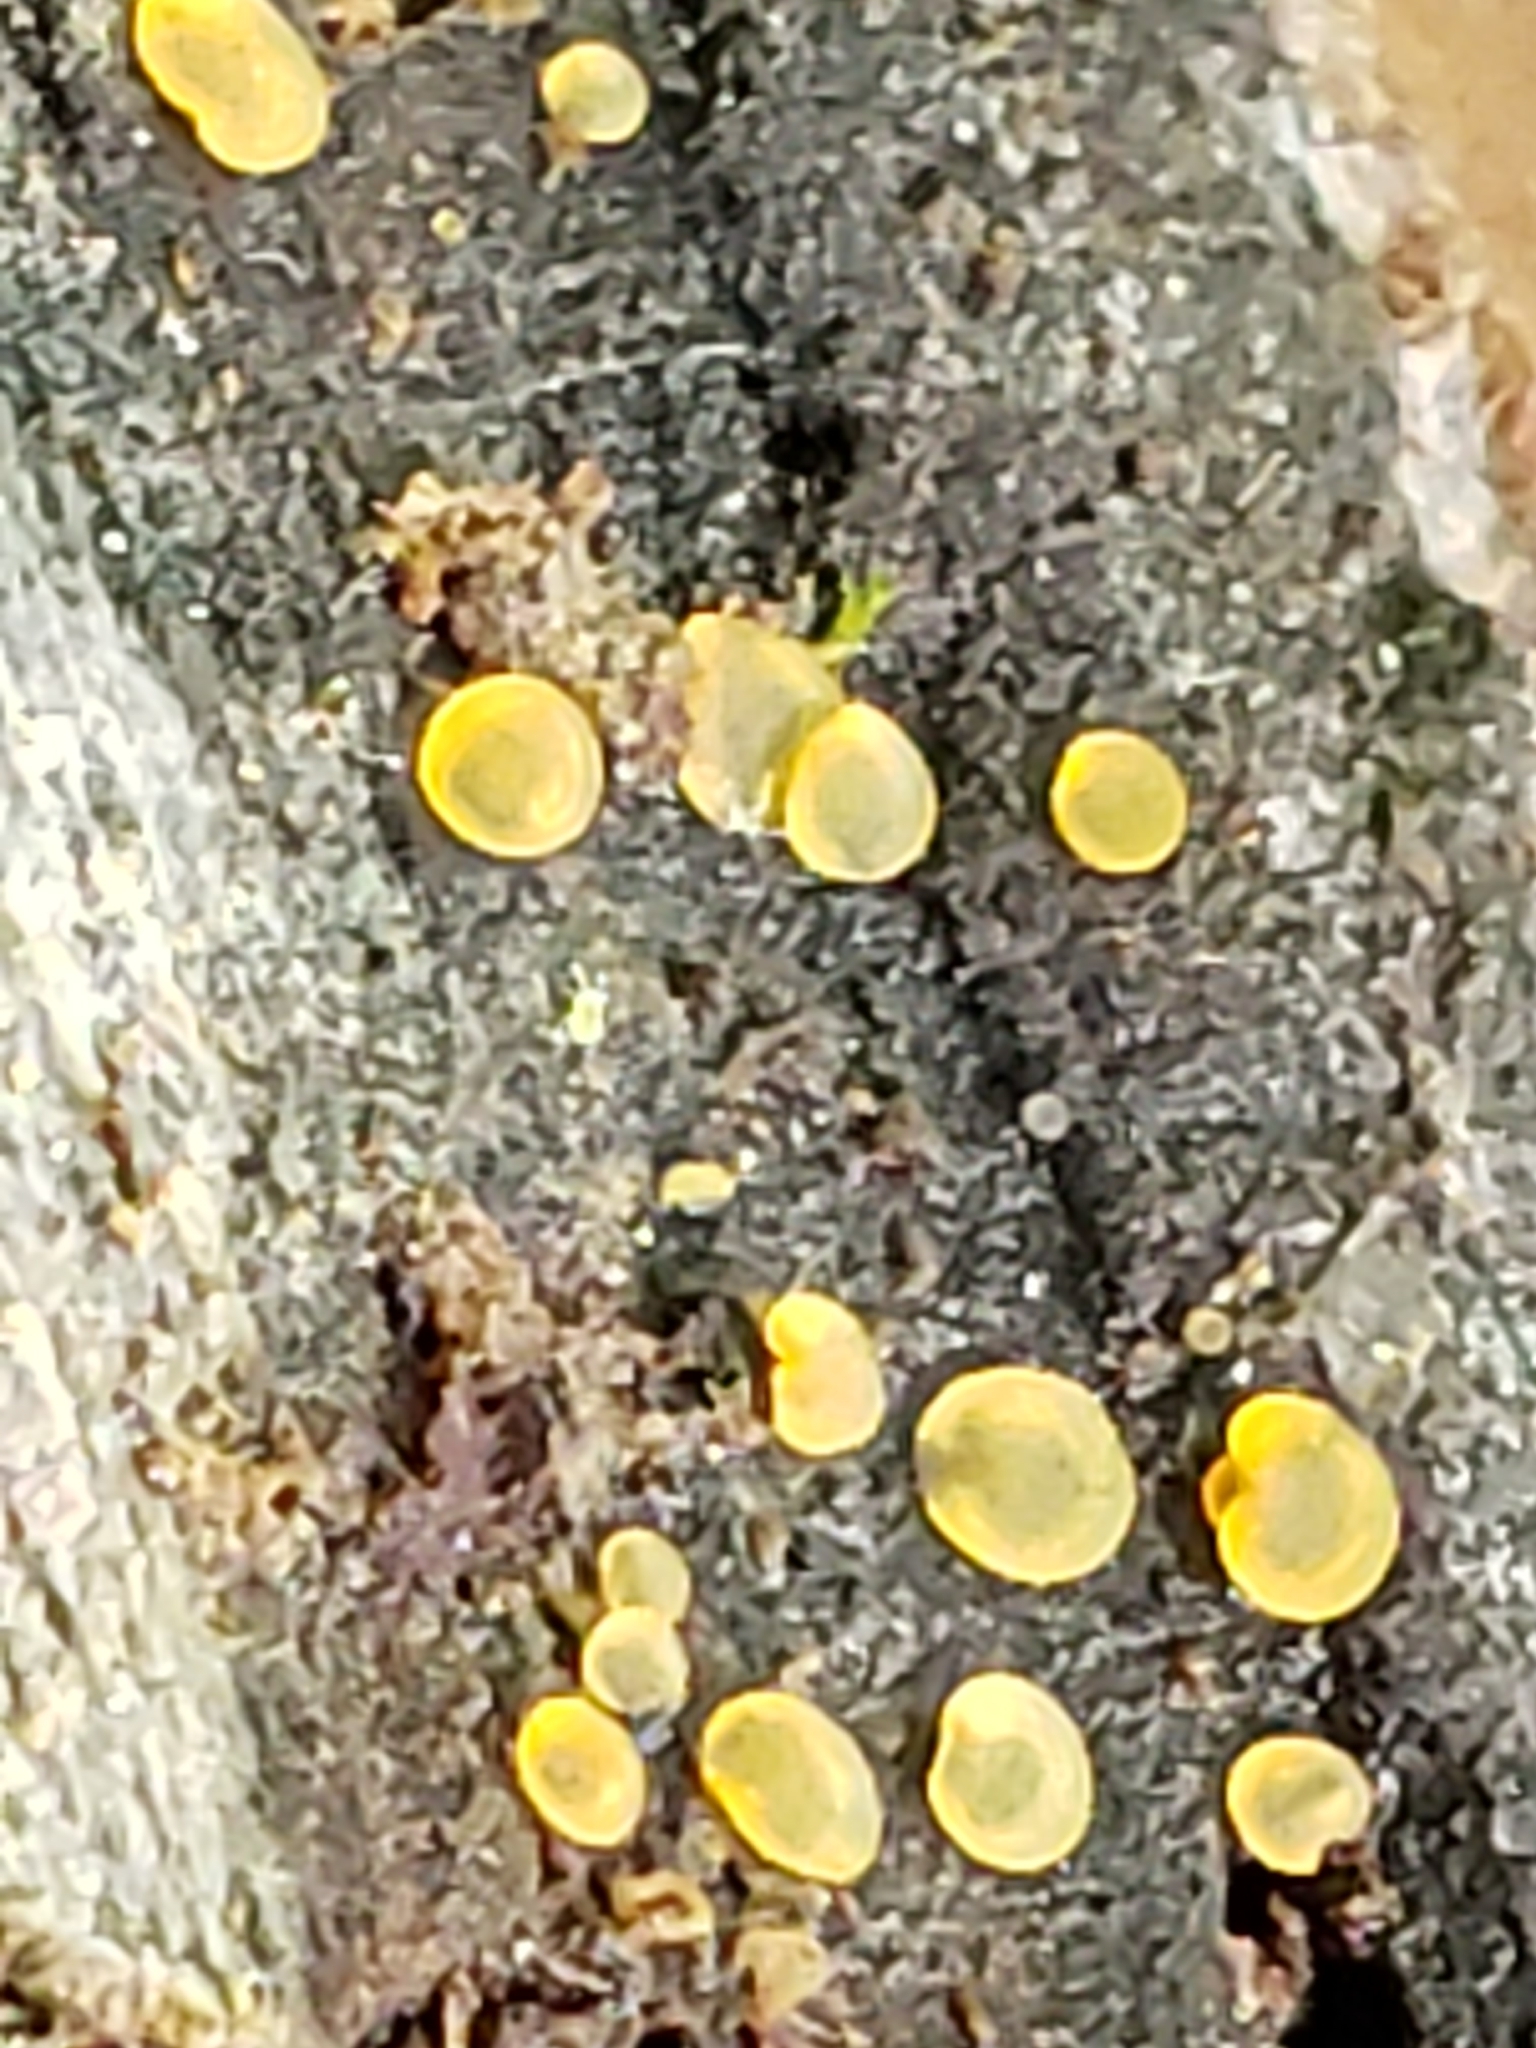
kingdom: Fungi
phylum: Ascomycota
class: Orbiliomycetes
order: Orbiliales
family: Orbiliaceae
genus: Orbilia
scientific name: Orbilia
